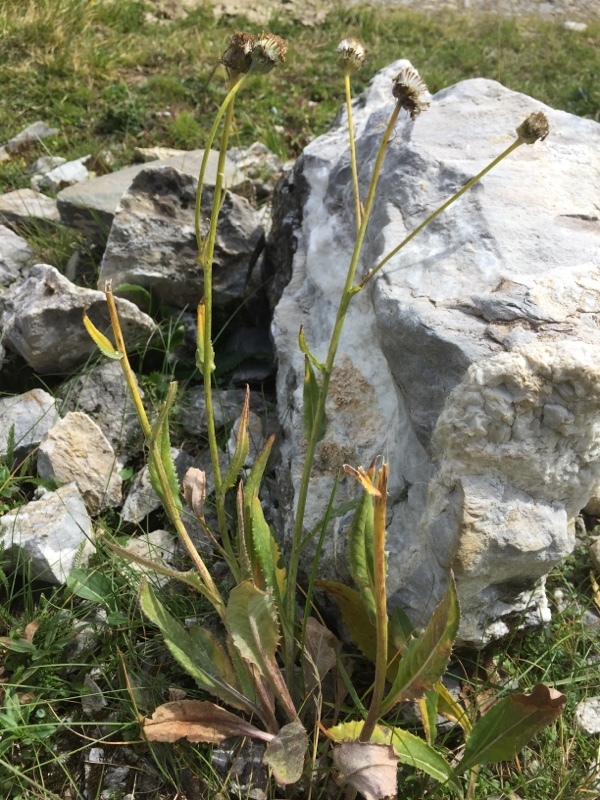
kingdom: Plantae
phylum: Tracheophyta
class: Magnoliopsida
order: Asterales
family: Asteraceae
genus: Senecio
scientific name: Senecio doronicum
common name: Chamois ragwort
